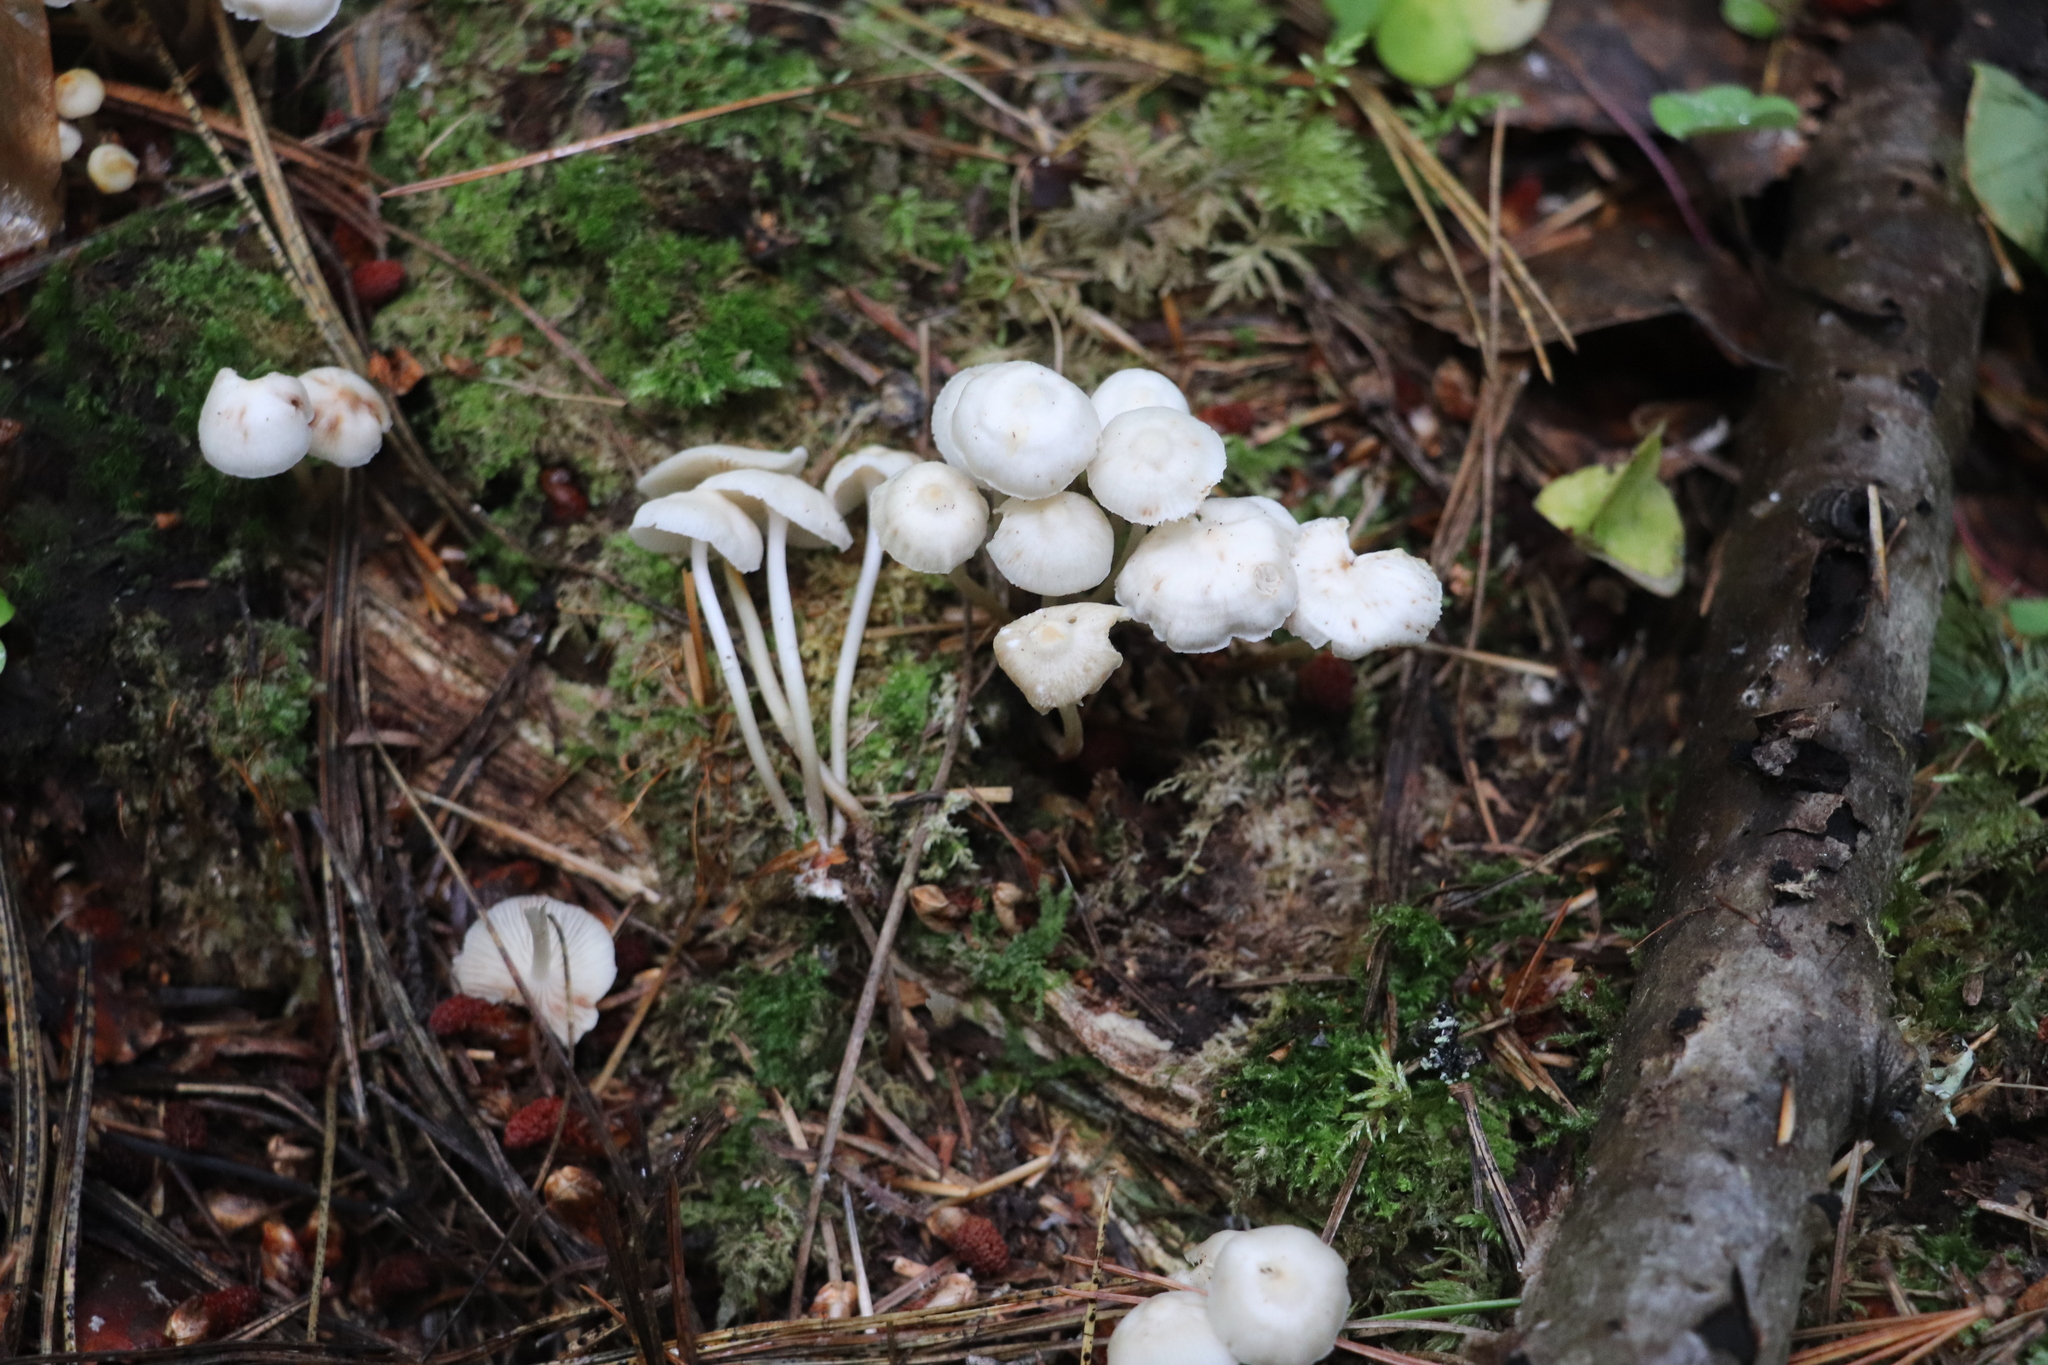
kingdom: Fungi
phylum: Basidiomycota
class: Agaricomycetes
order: Agaricales
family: Marasmiaceae
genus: Marasmius
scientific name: Marasmius wynneae
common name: Pearly parachute
